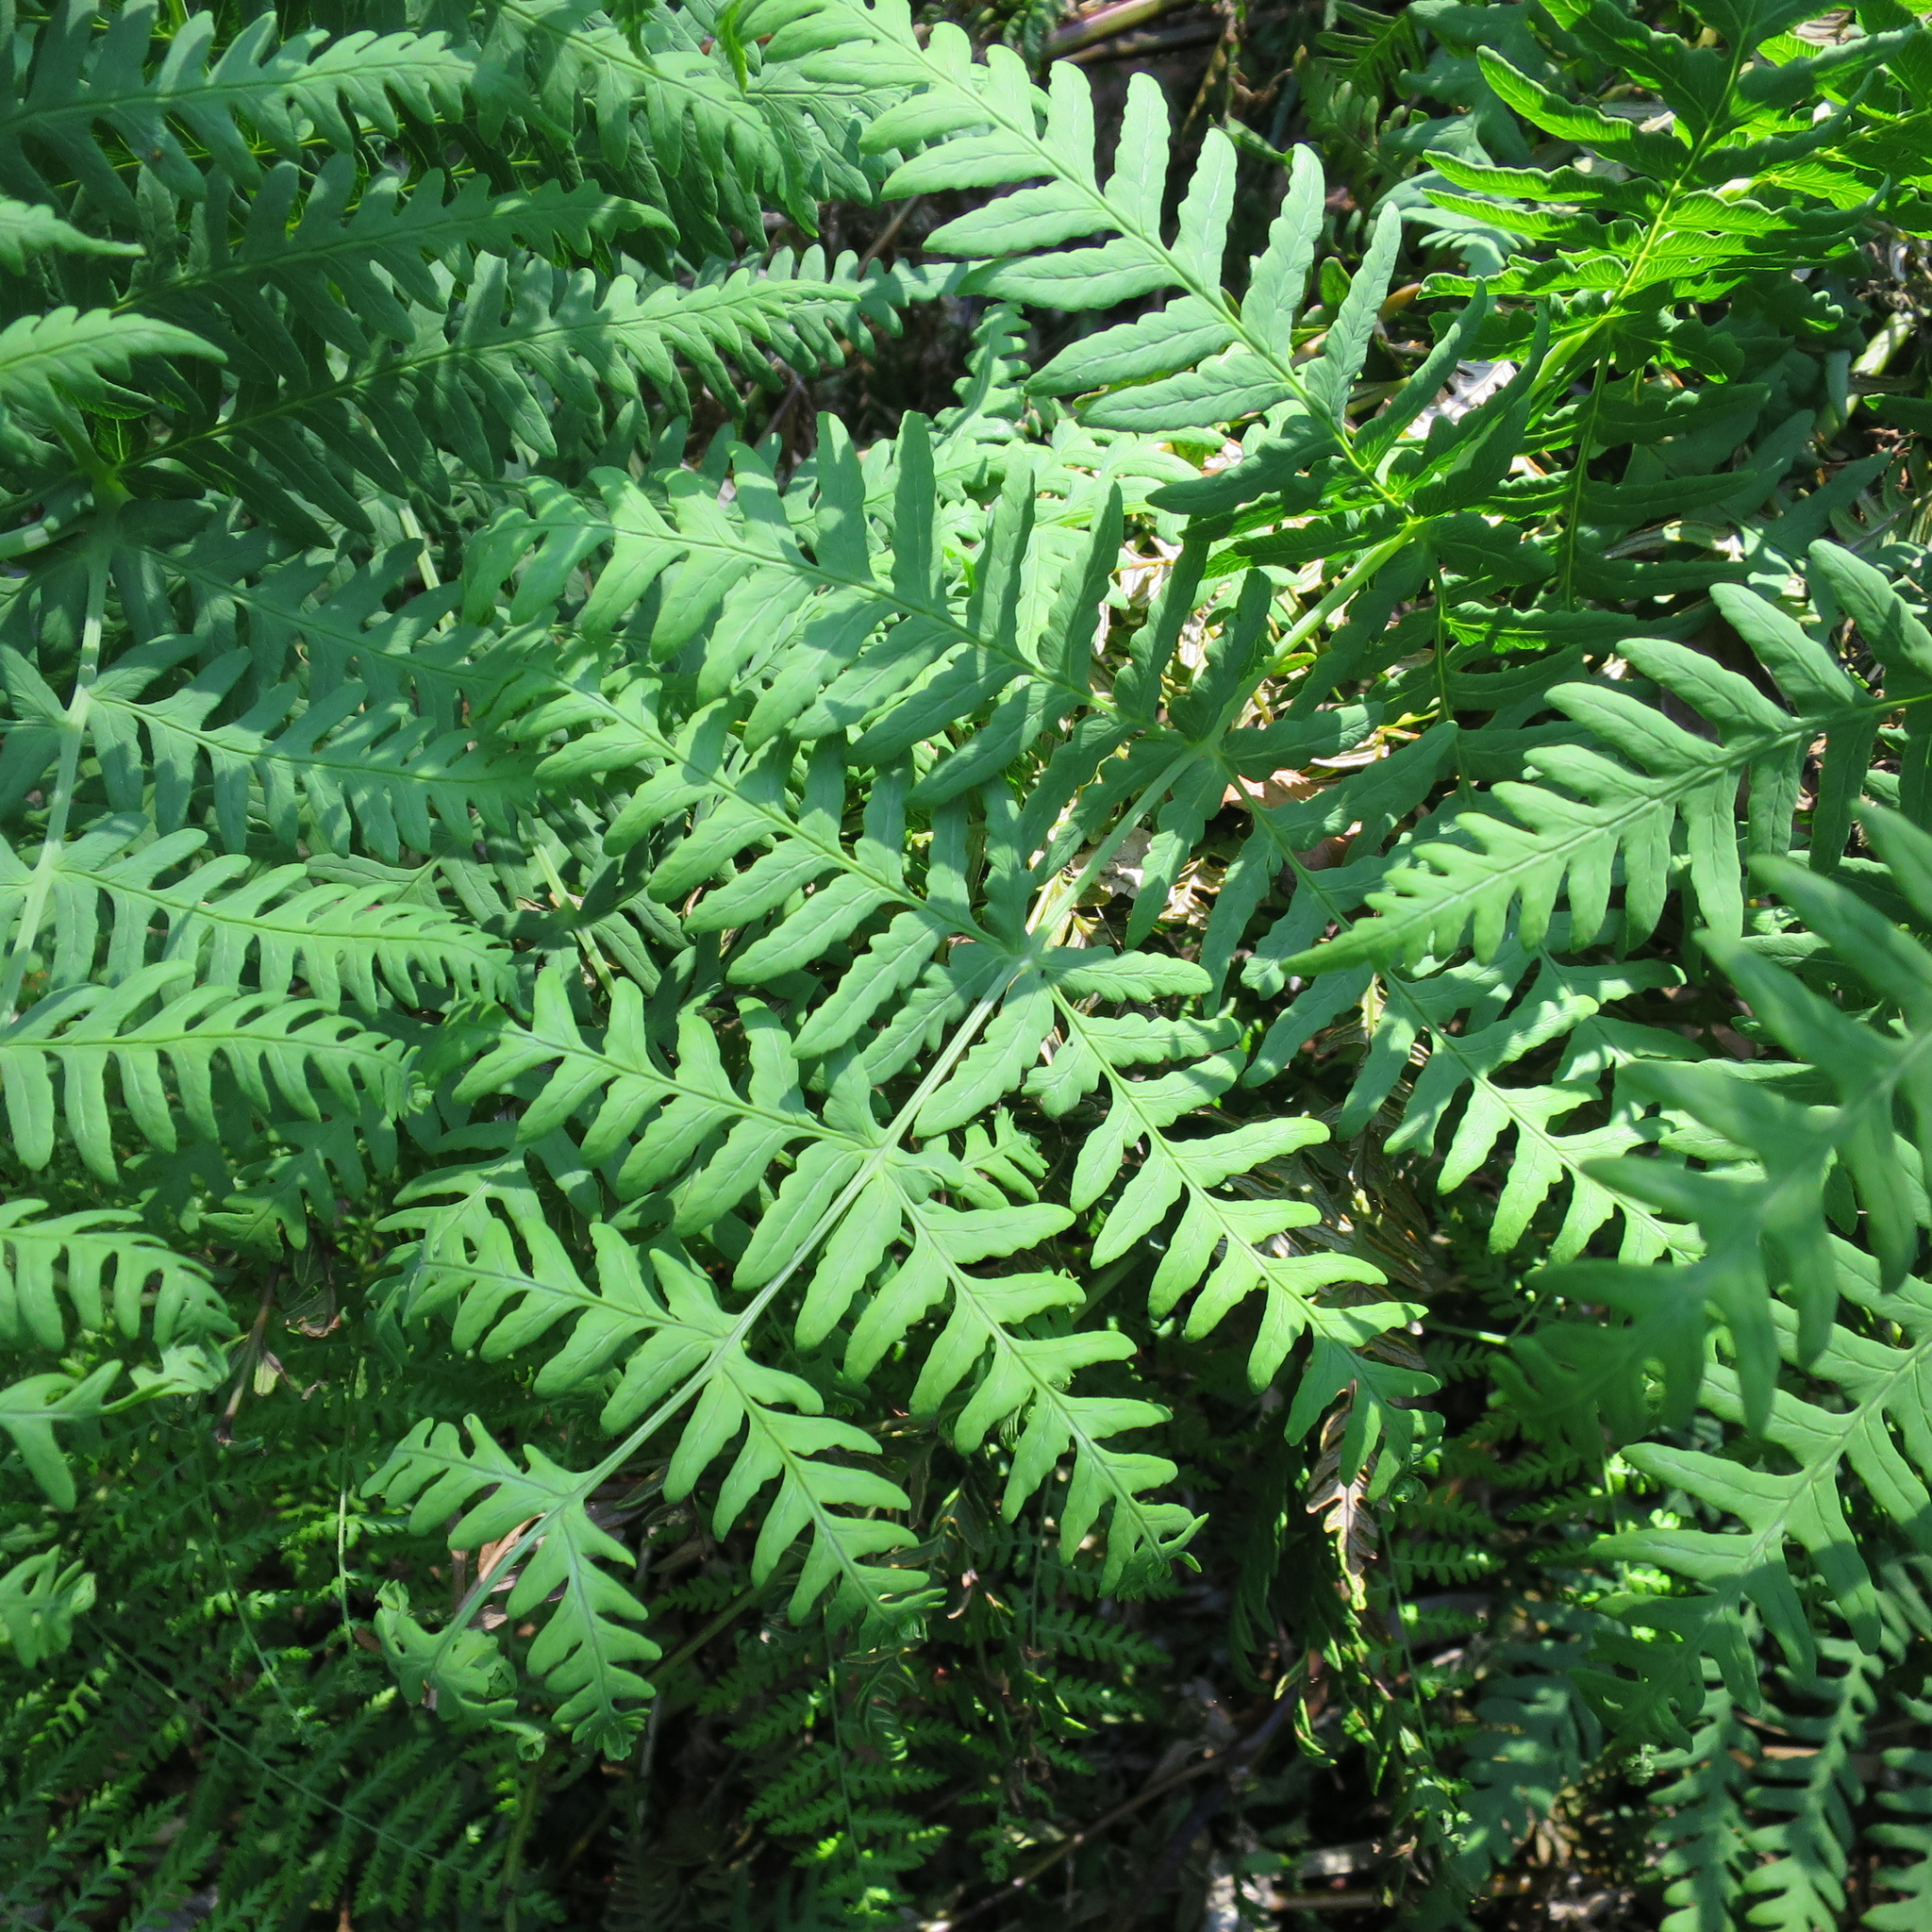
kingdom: Plantae
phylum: Tracheophyta
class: Polypodiopsida
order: Polypodiales
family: Dennstaedtiaceae
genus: Histiopteris
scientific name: Histiopteris incisa
